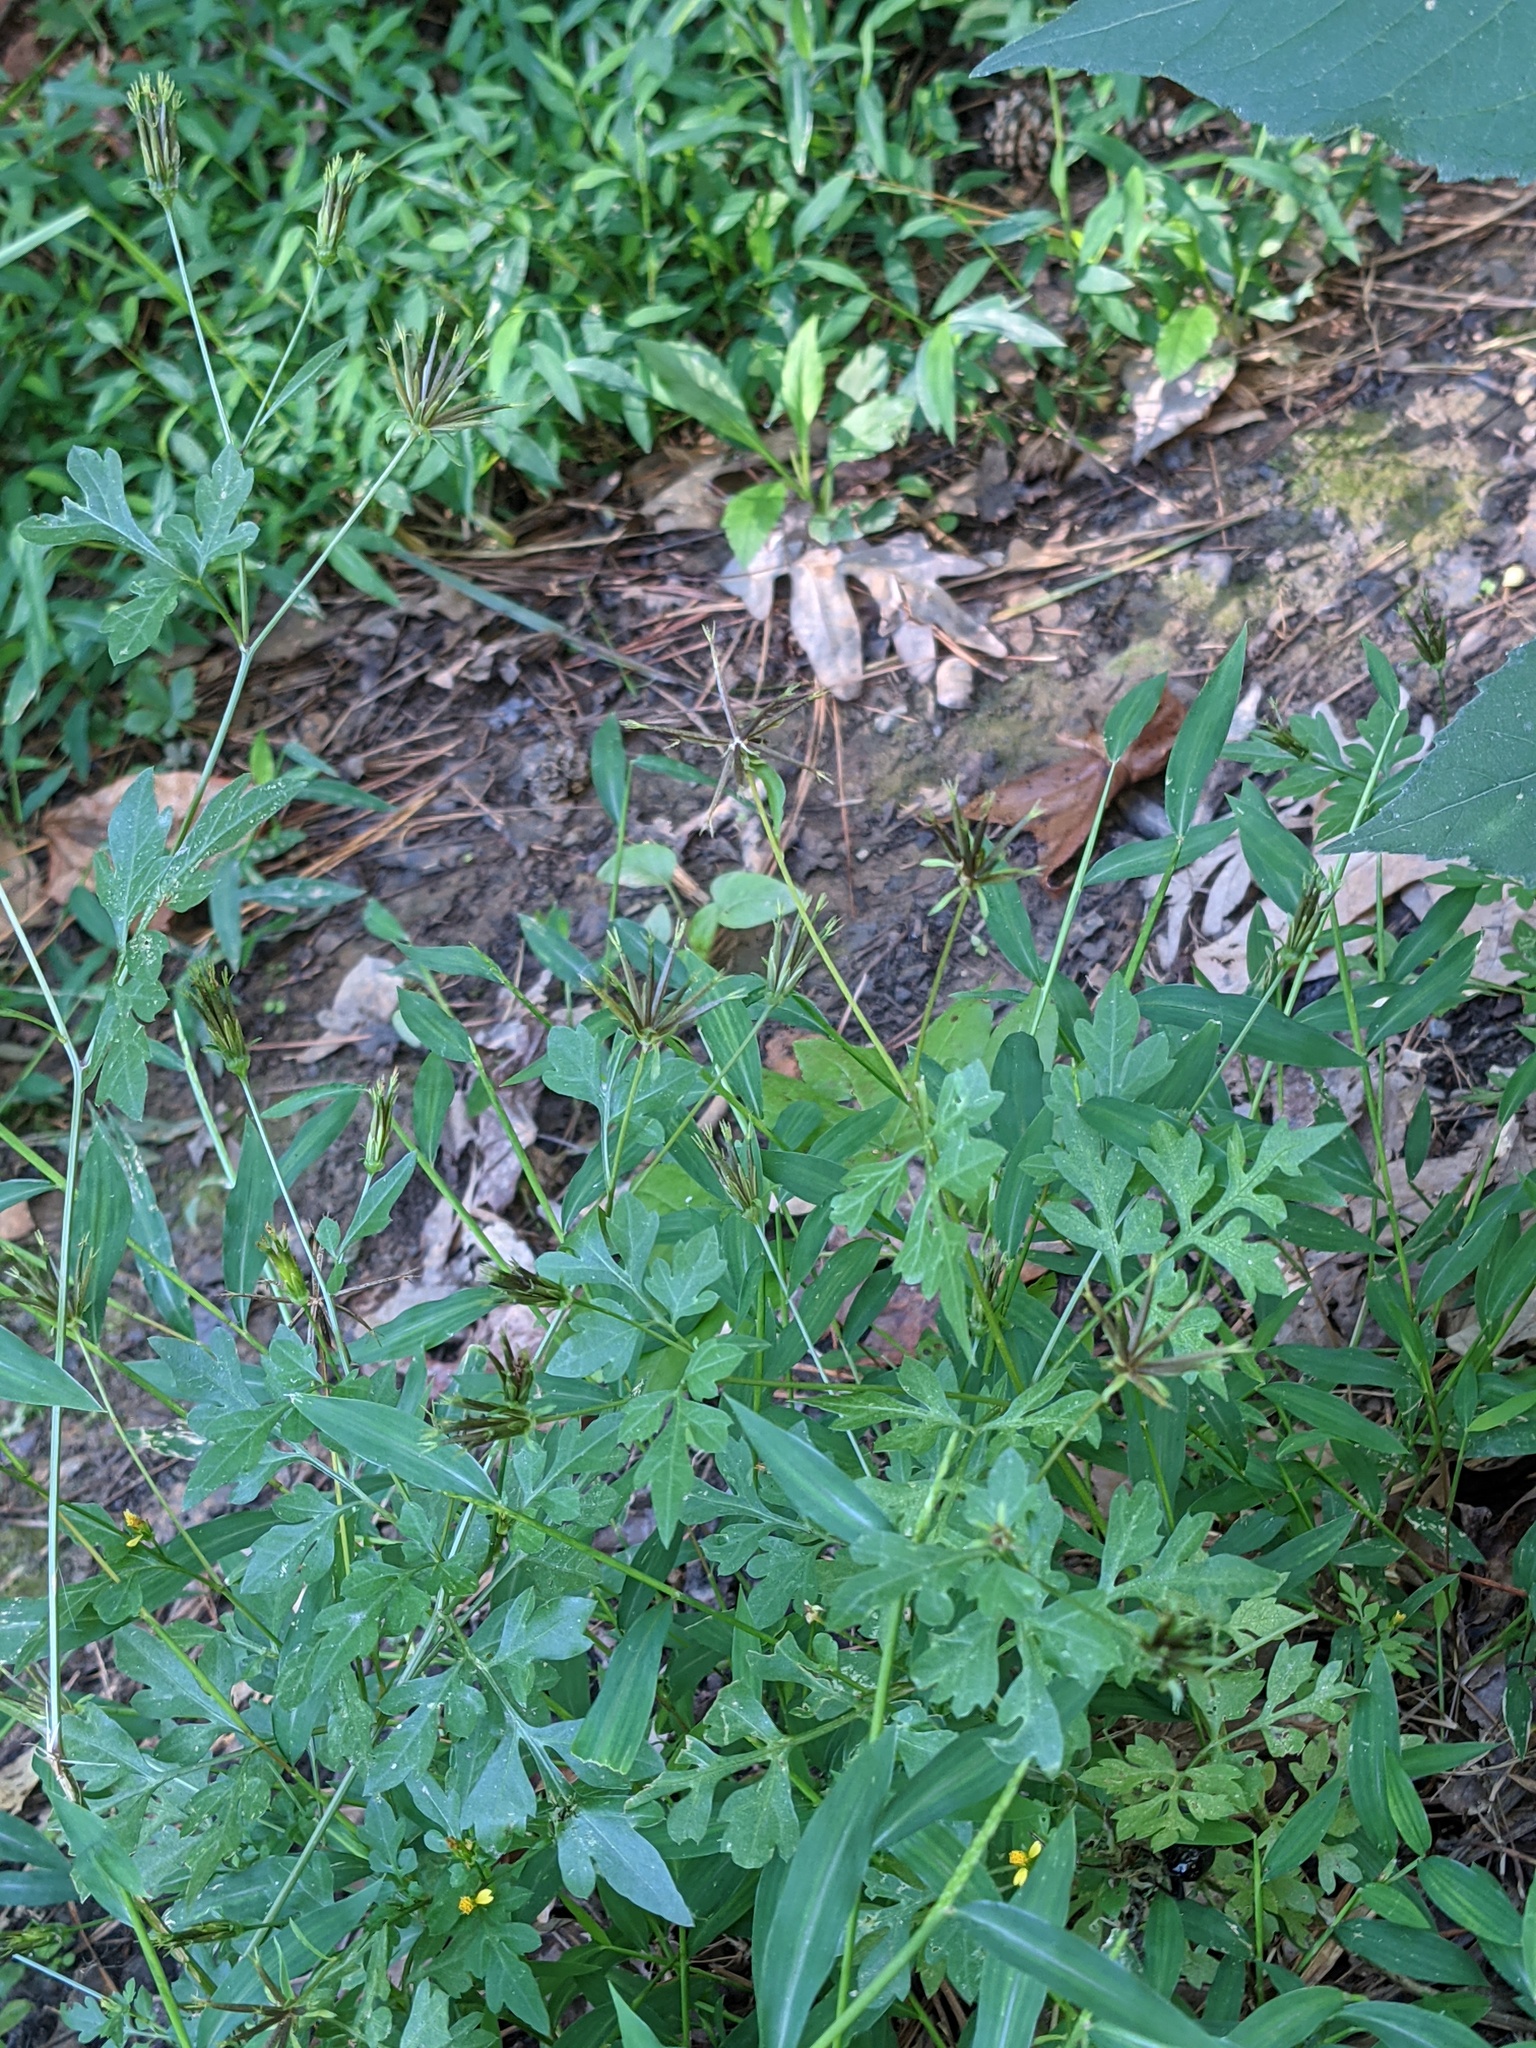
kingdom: Plantae
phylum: Tracheophyta
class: Magnoliopsida
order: Asterales
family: Asteraceae
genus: Bidens
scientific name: Bidens alba
